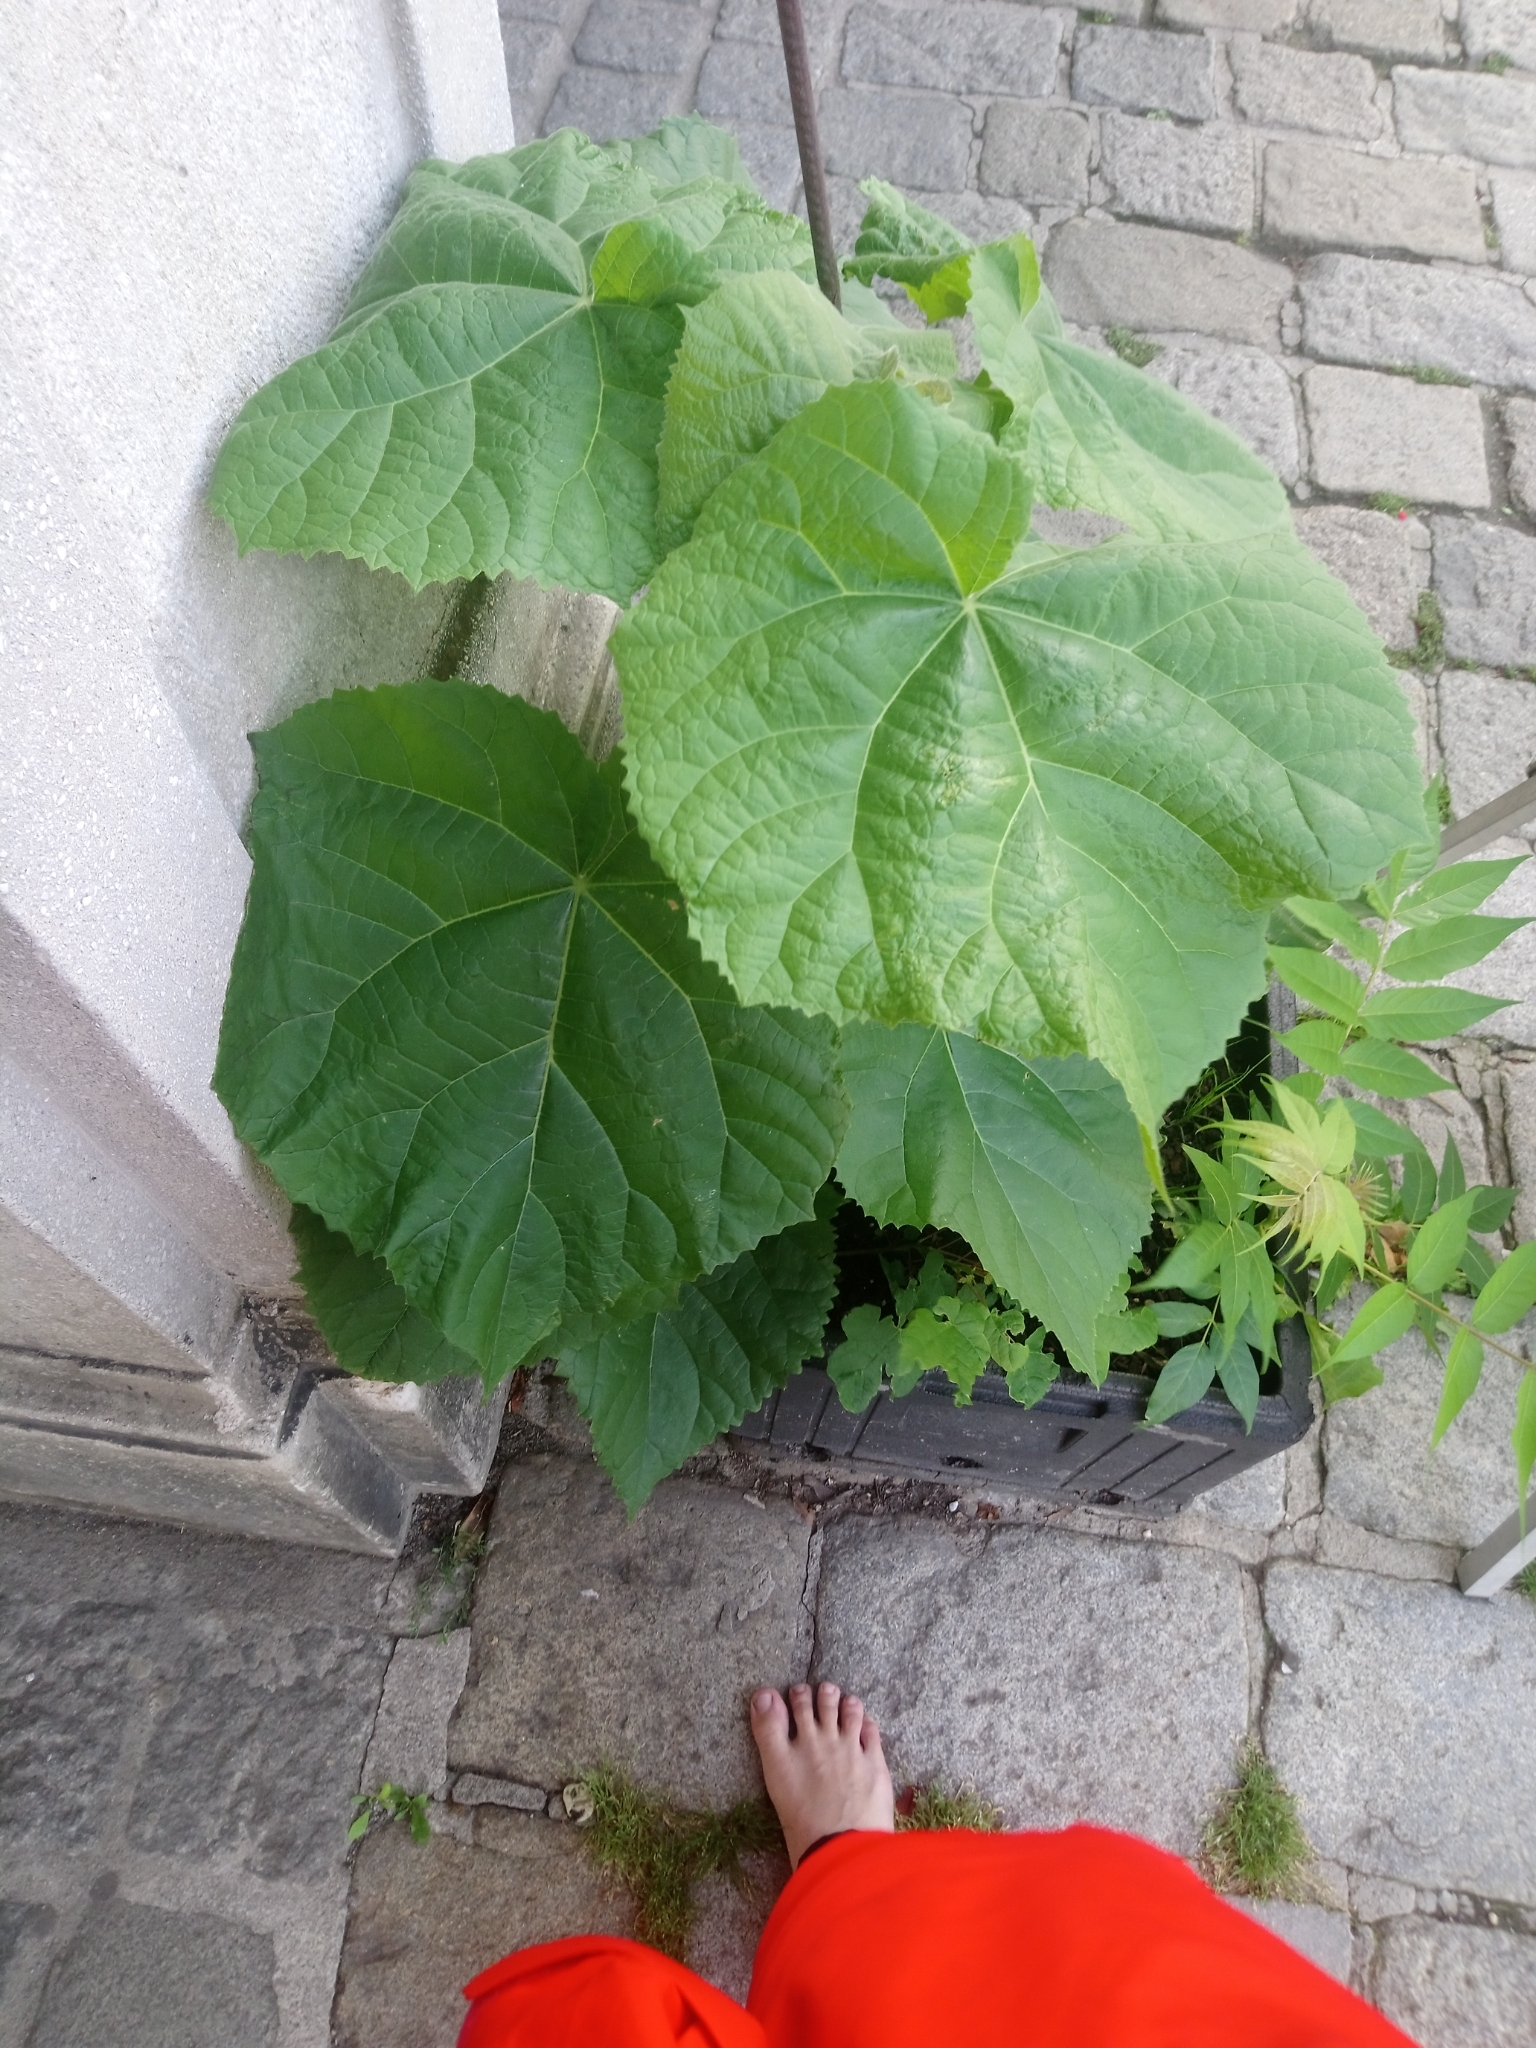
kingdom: Plantae
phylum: Tracheophyta
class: Magnoliopsida
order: Lamiales
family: Paulowniaceae
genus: Paulownia
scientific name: Paulownia tomentosa
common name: Foxglove-tree
